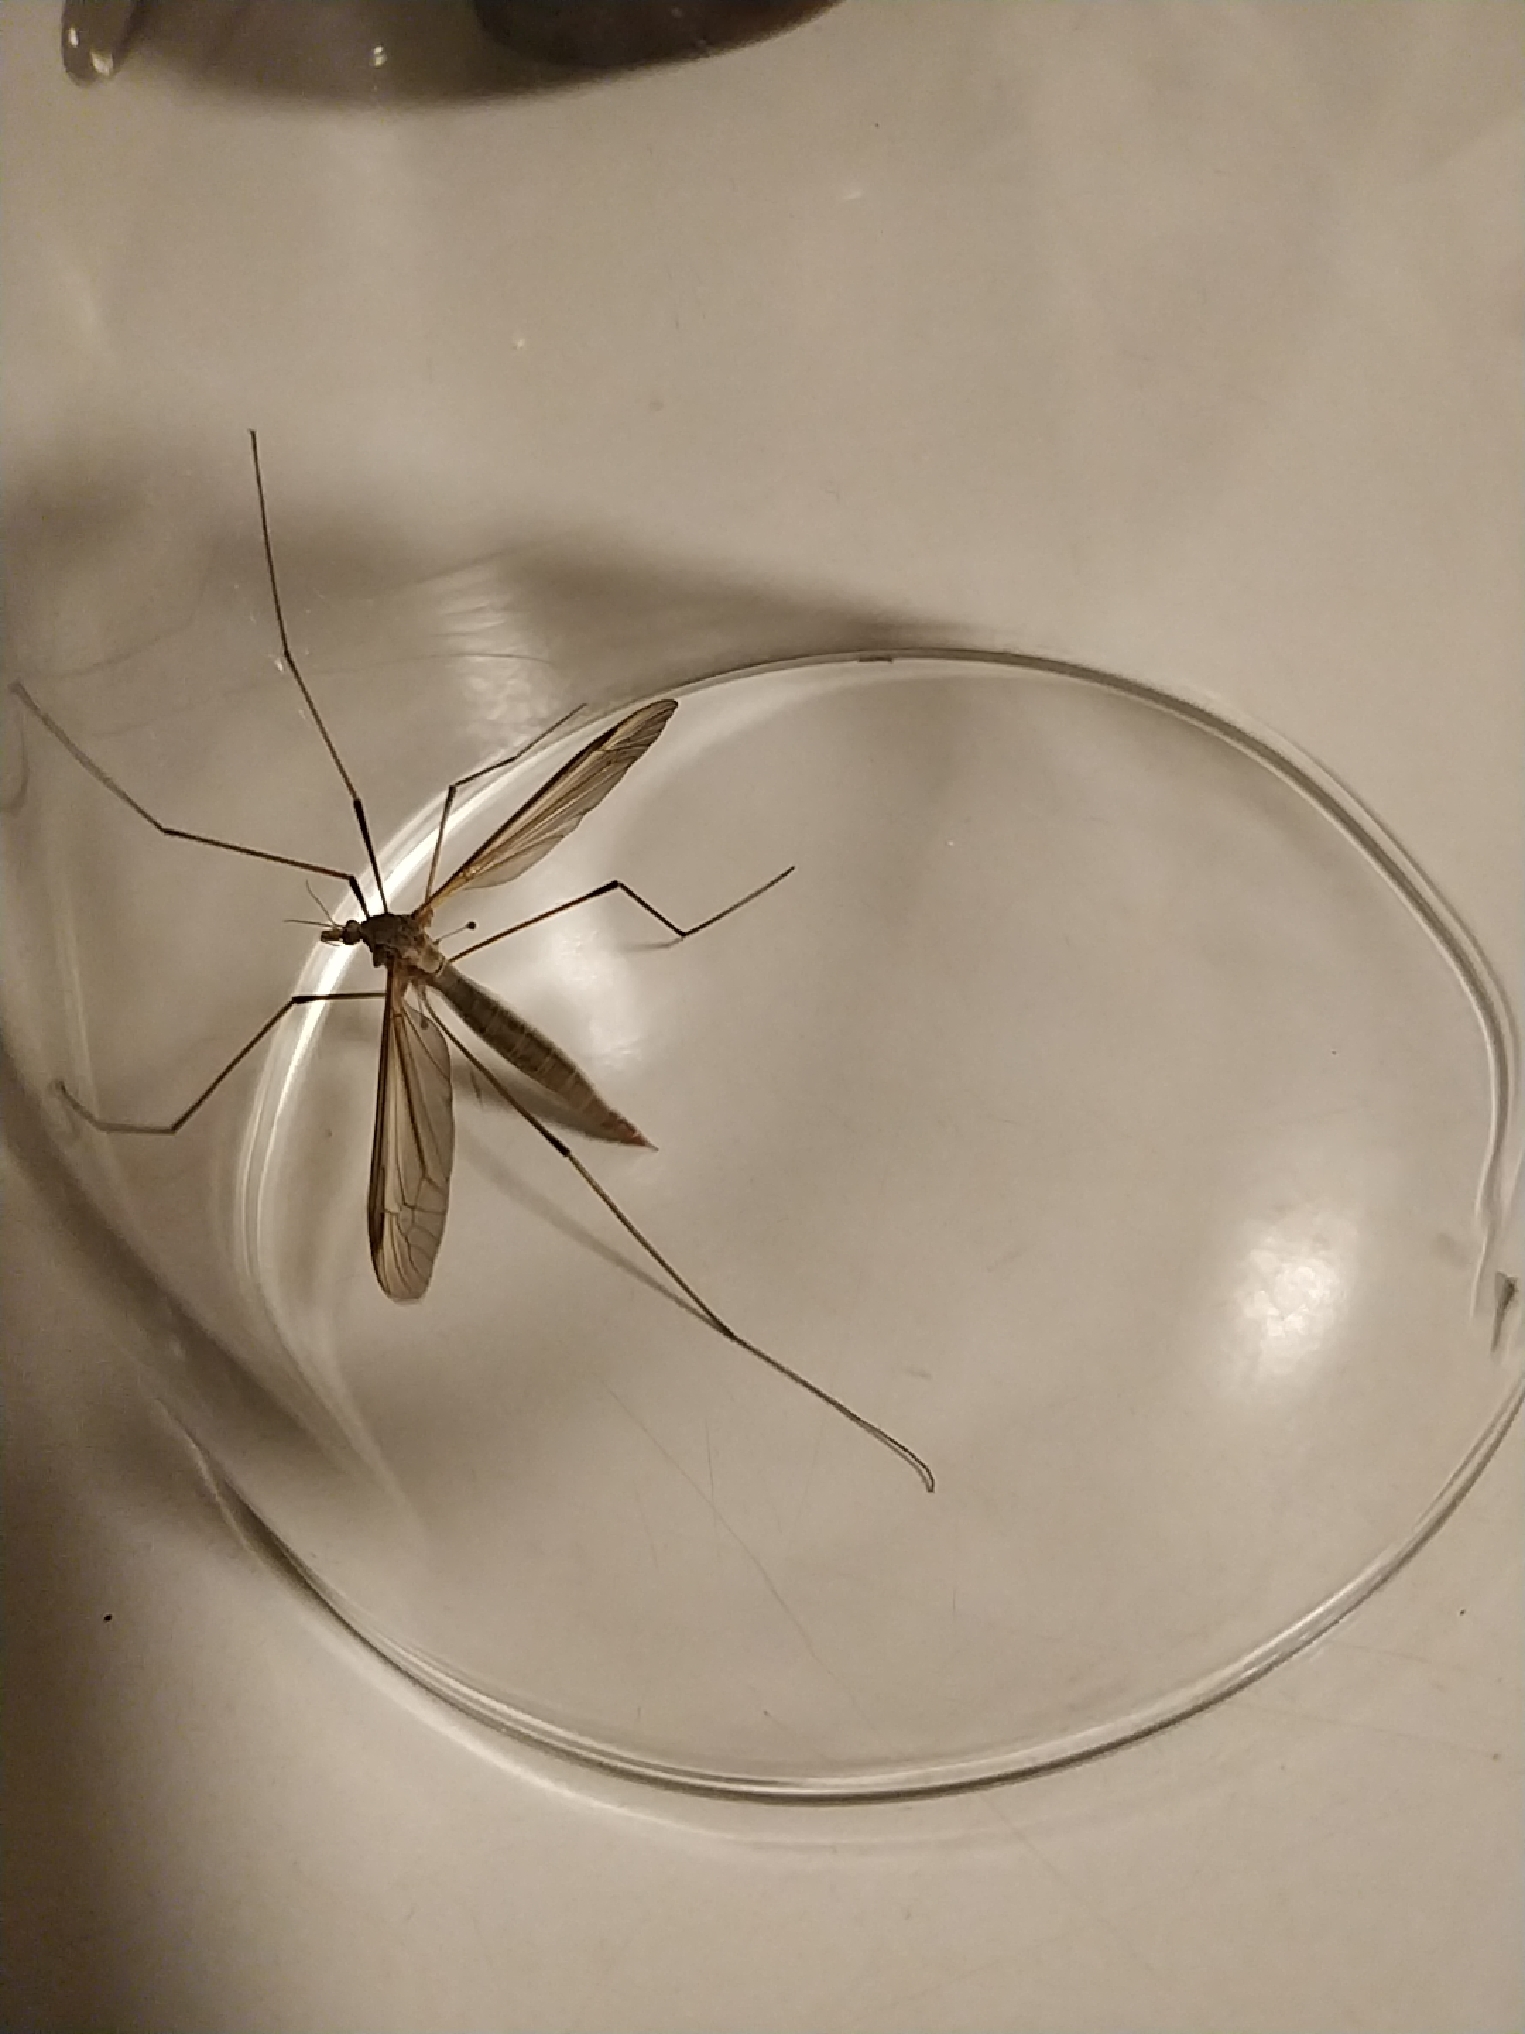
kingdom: Animalia
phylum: Arthropoda
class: Insecta
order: Diptera
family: Tipulidae
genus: Tipula
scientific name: Tipula oleracea
